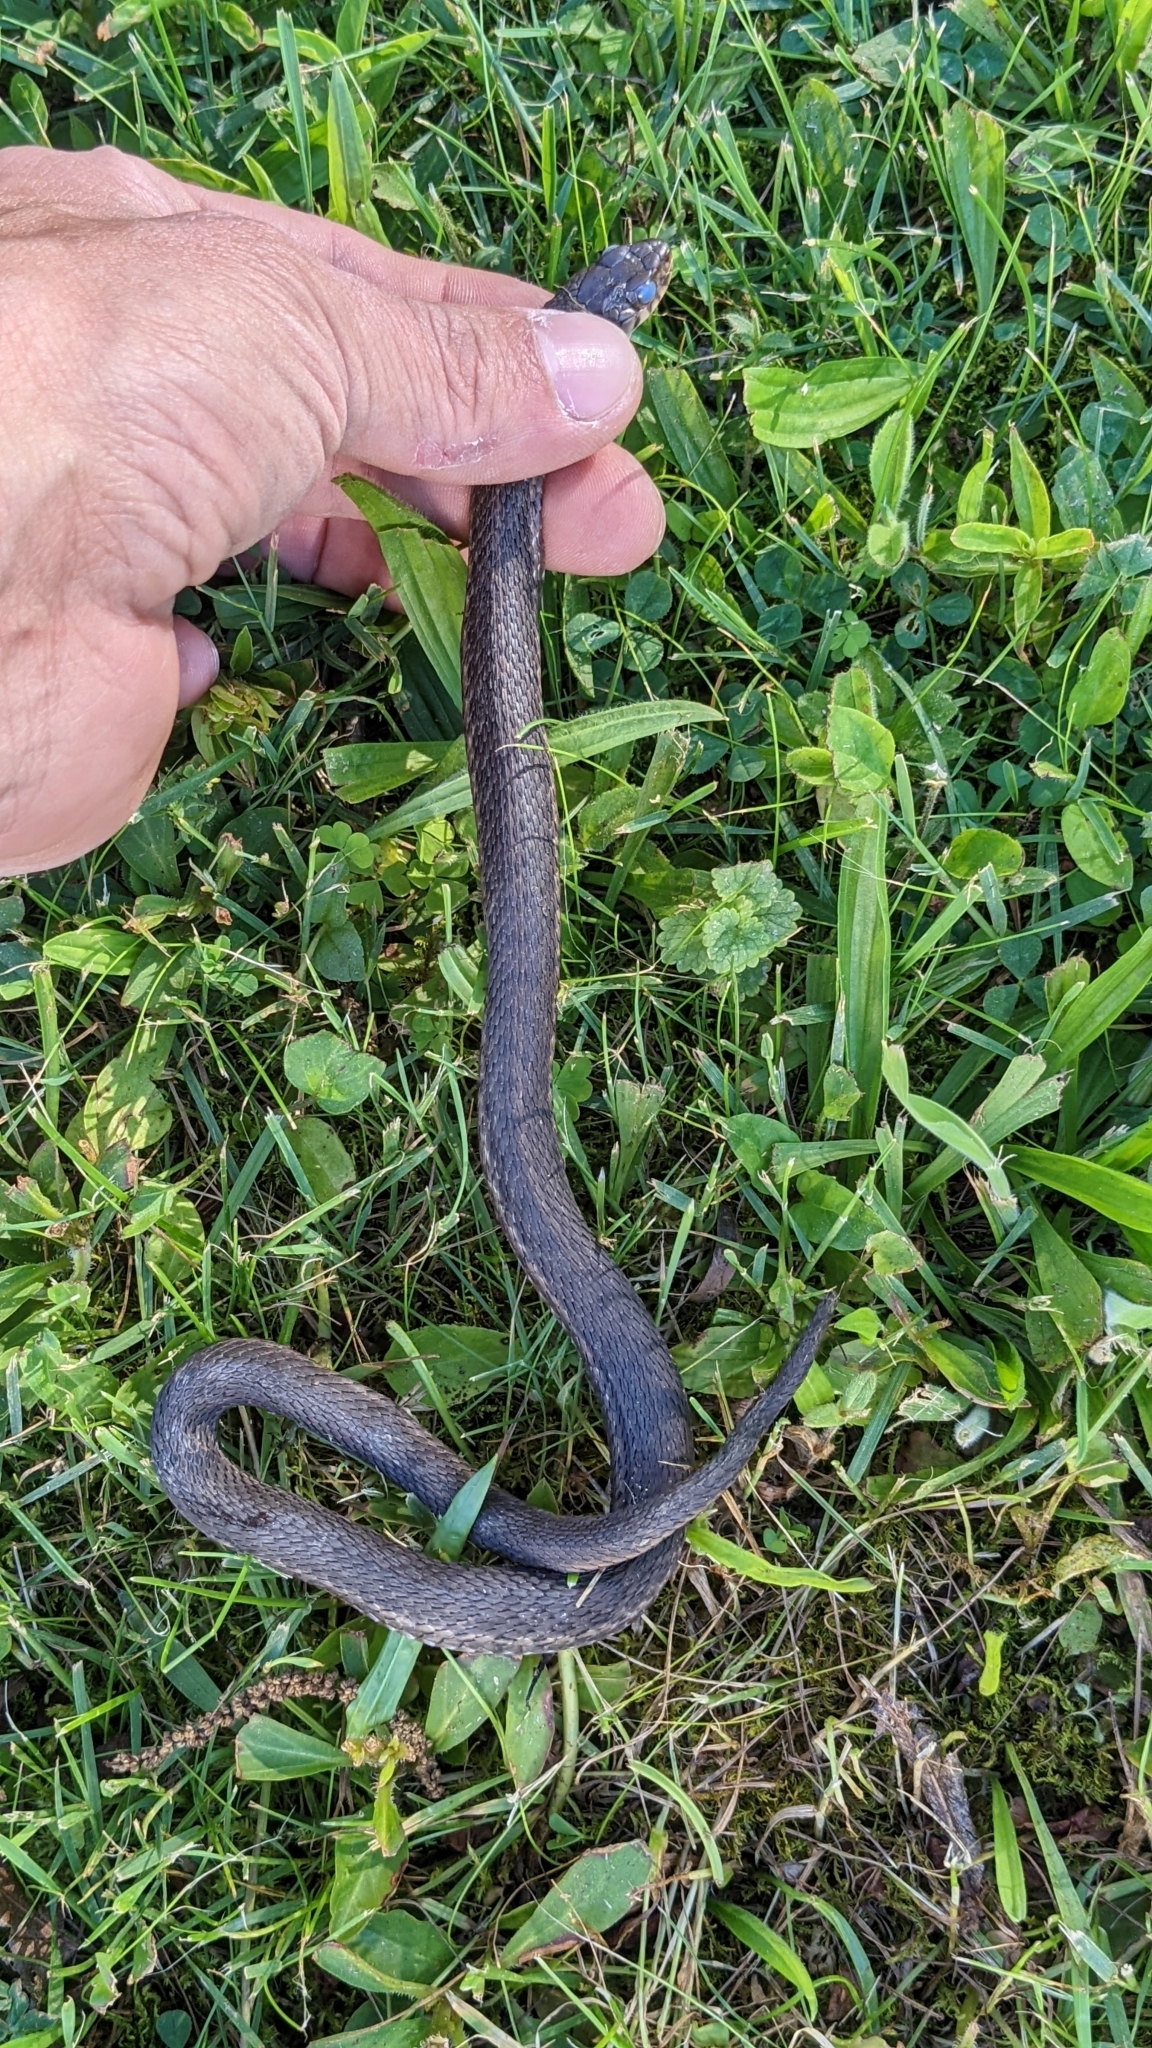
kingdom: Animalia
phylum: Chordata
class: Squamata
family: Colubridae
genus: Thamnophis
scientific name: Thamnophis sirtalis
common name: Common garter snake
